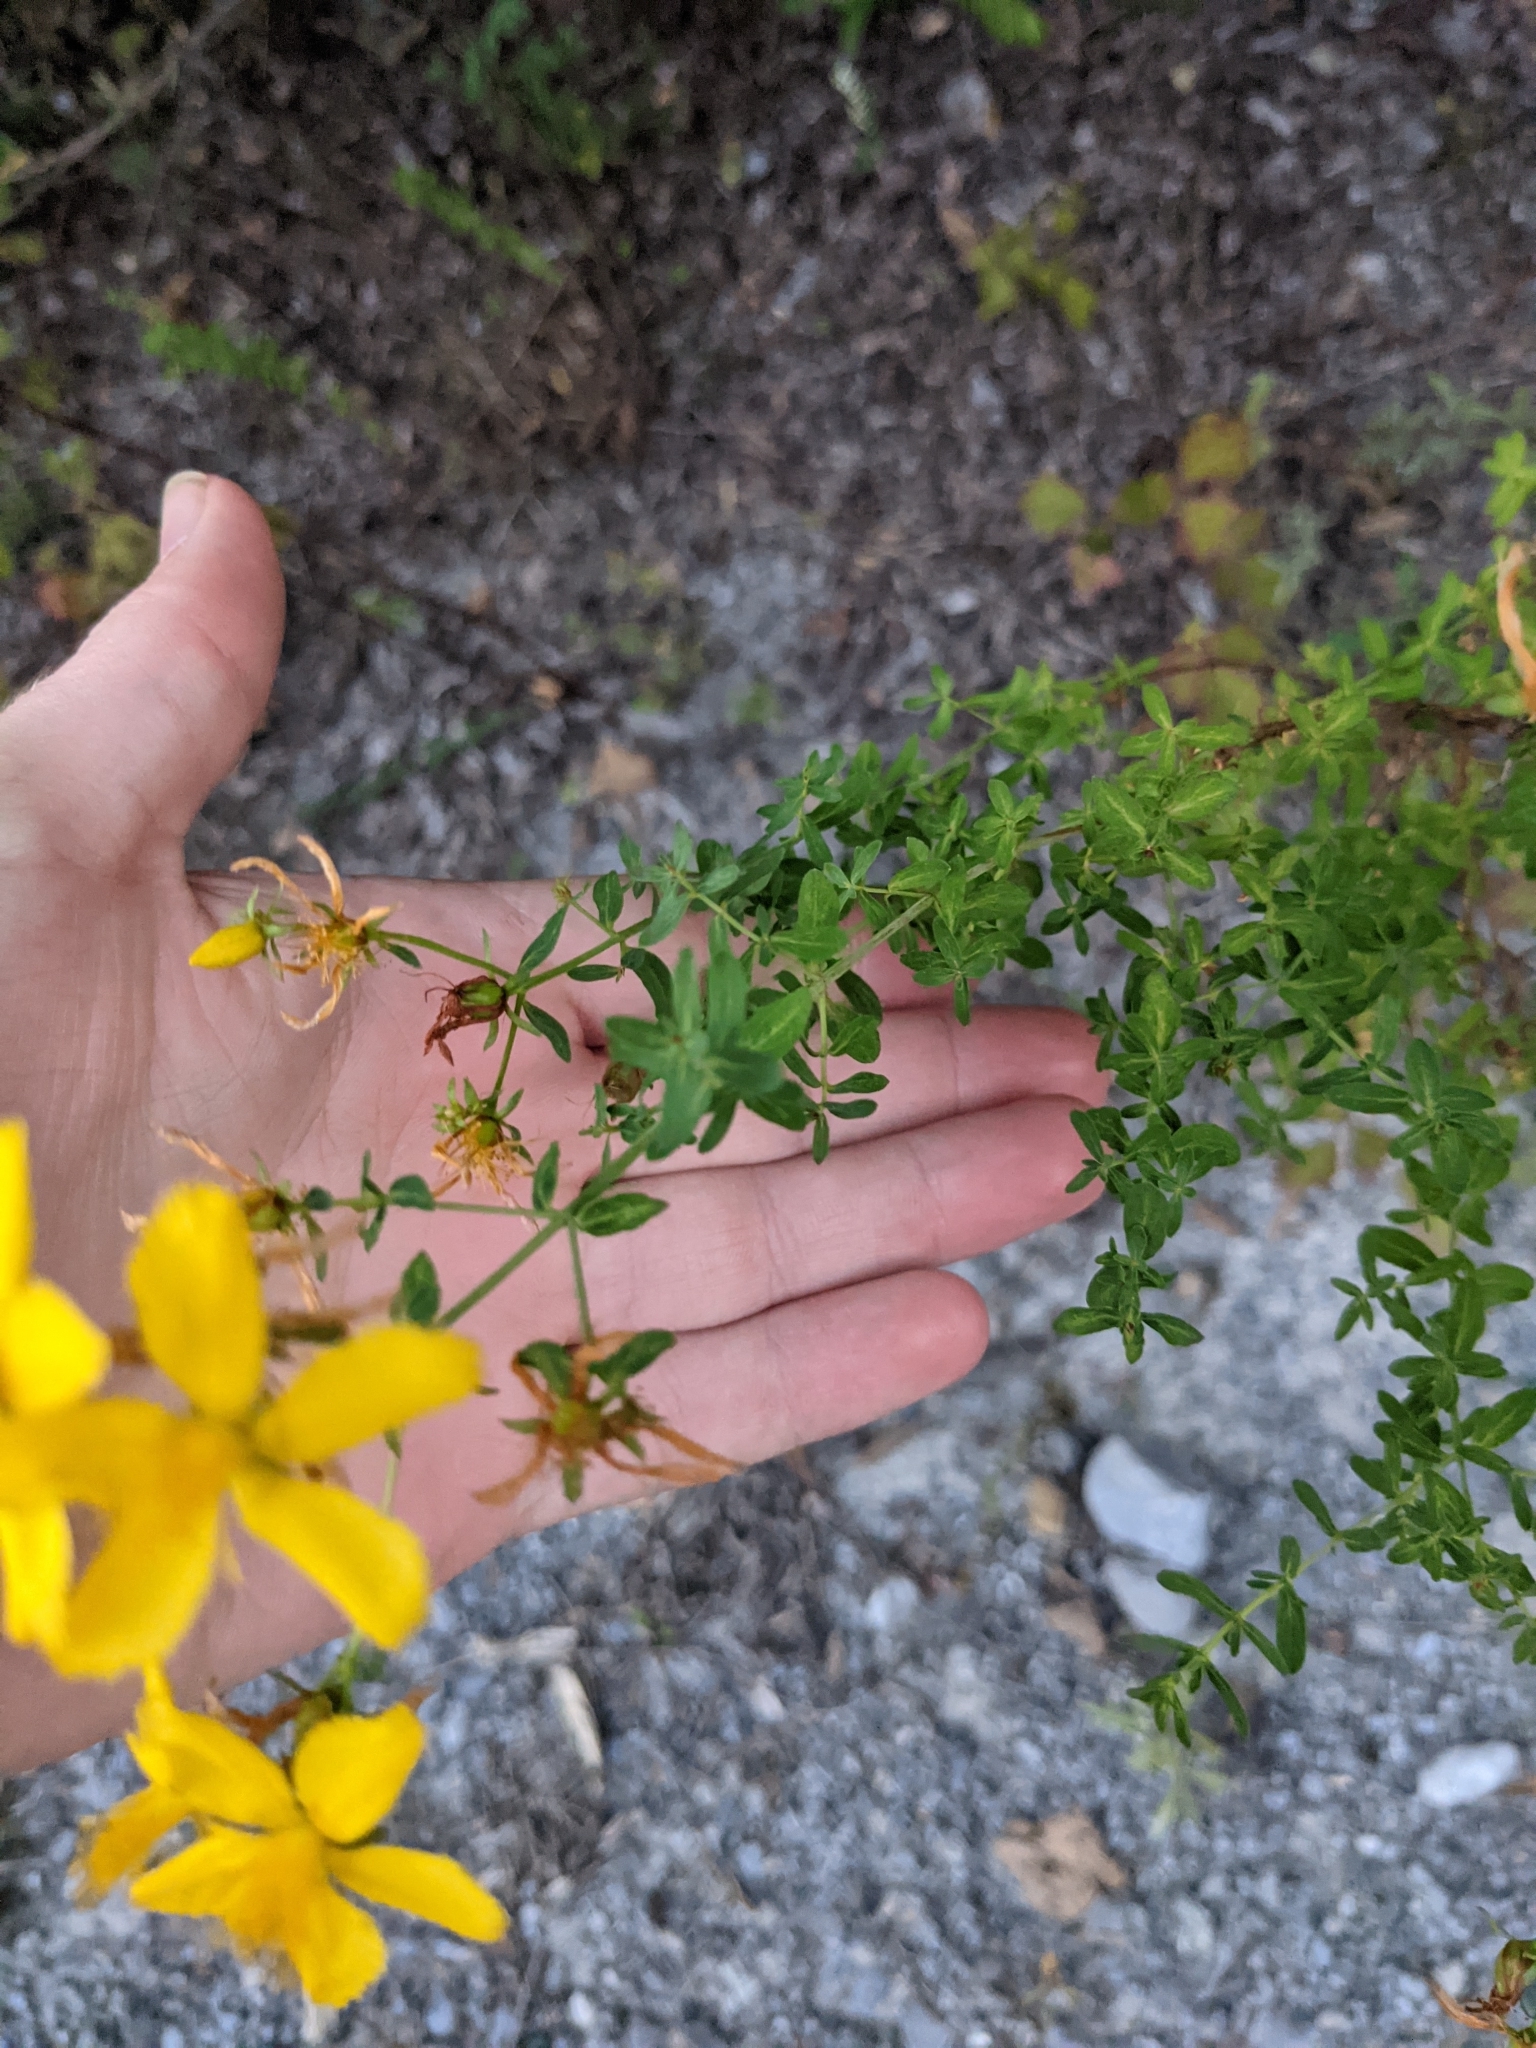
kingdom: Plantae
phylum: Tracheophyta
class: Magnoliopsida
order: Malpighiales
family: Hypericaceae
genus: Hypericum
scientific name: Hypericum perforatum
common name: Common st. johnswort
